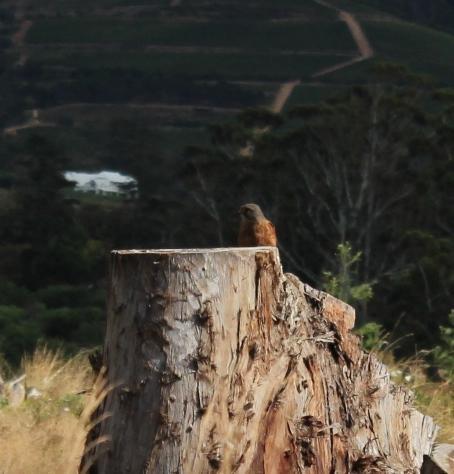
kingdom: Animalia
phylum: Chordata
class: Aves
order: Falconiformes
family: Falconidae
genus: Falco
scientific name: Falco rupicolus
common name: Rock kestrel
